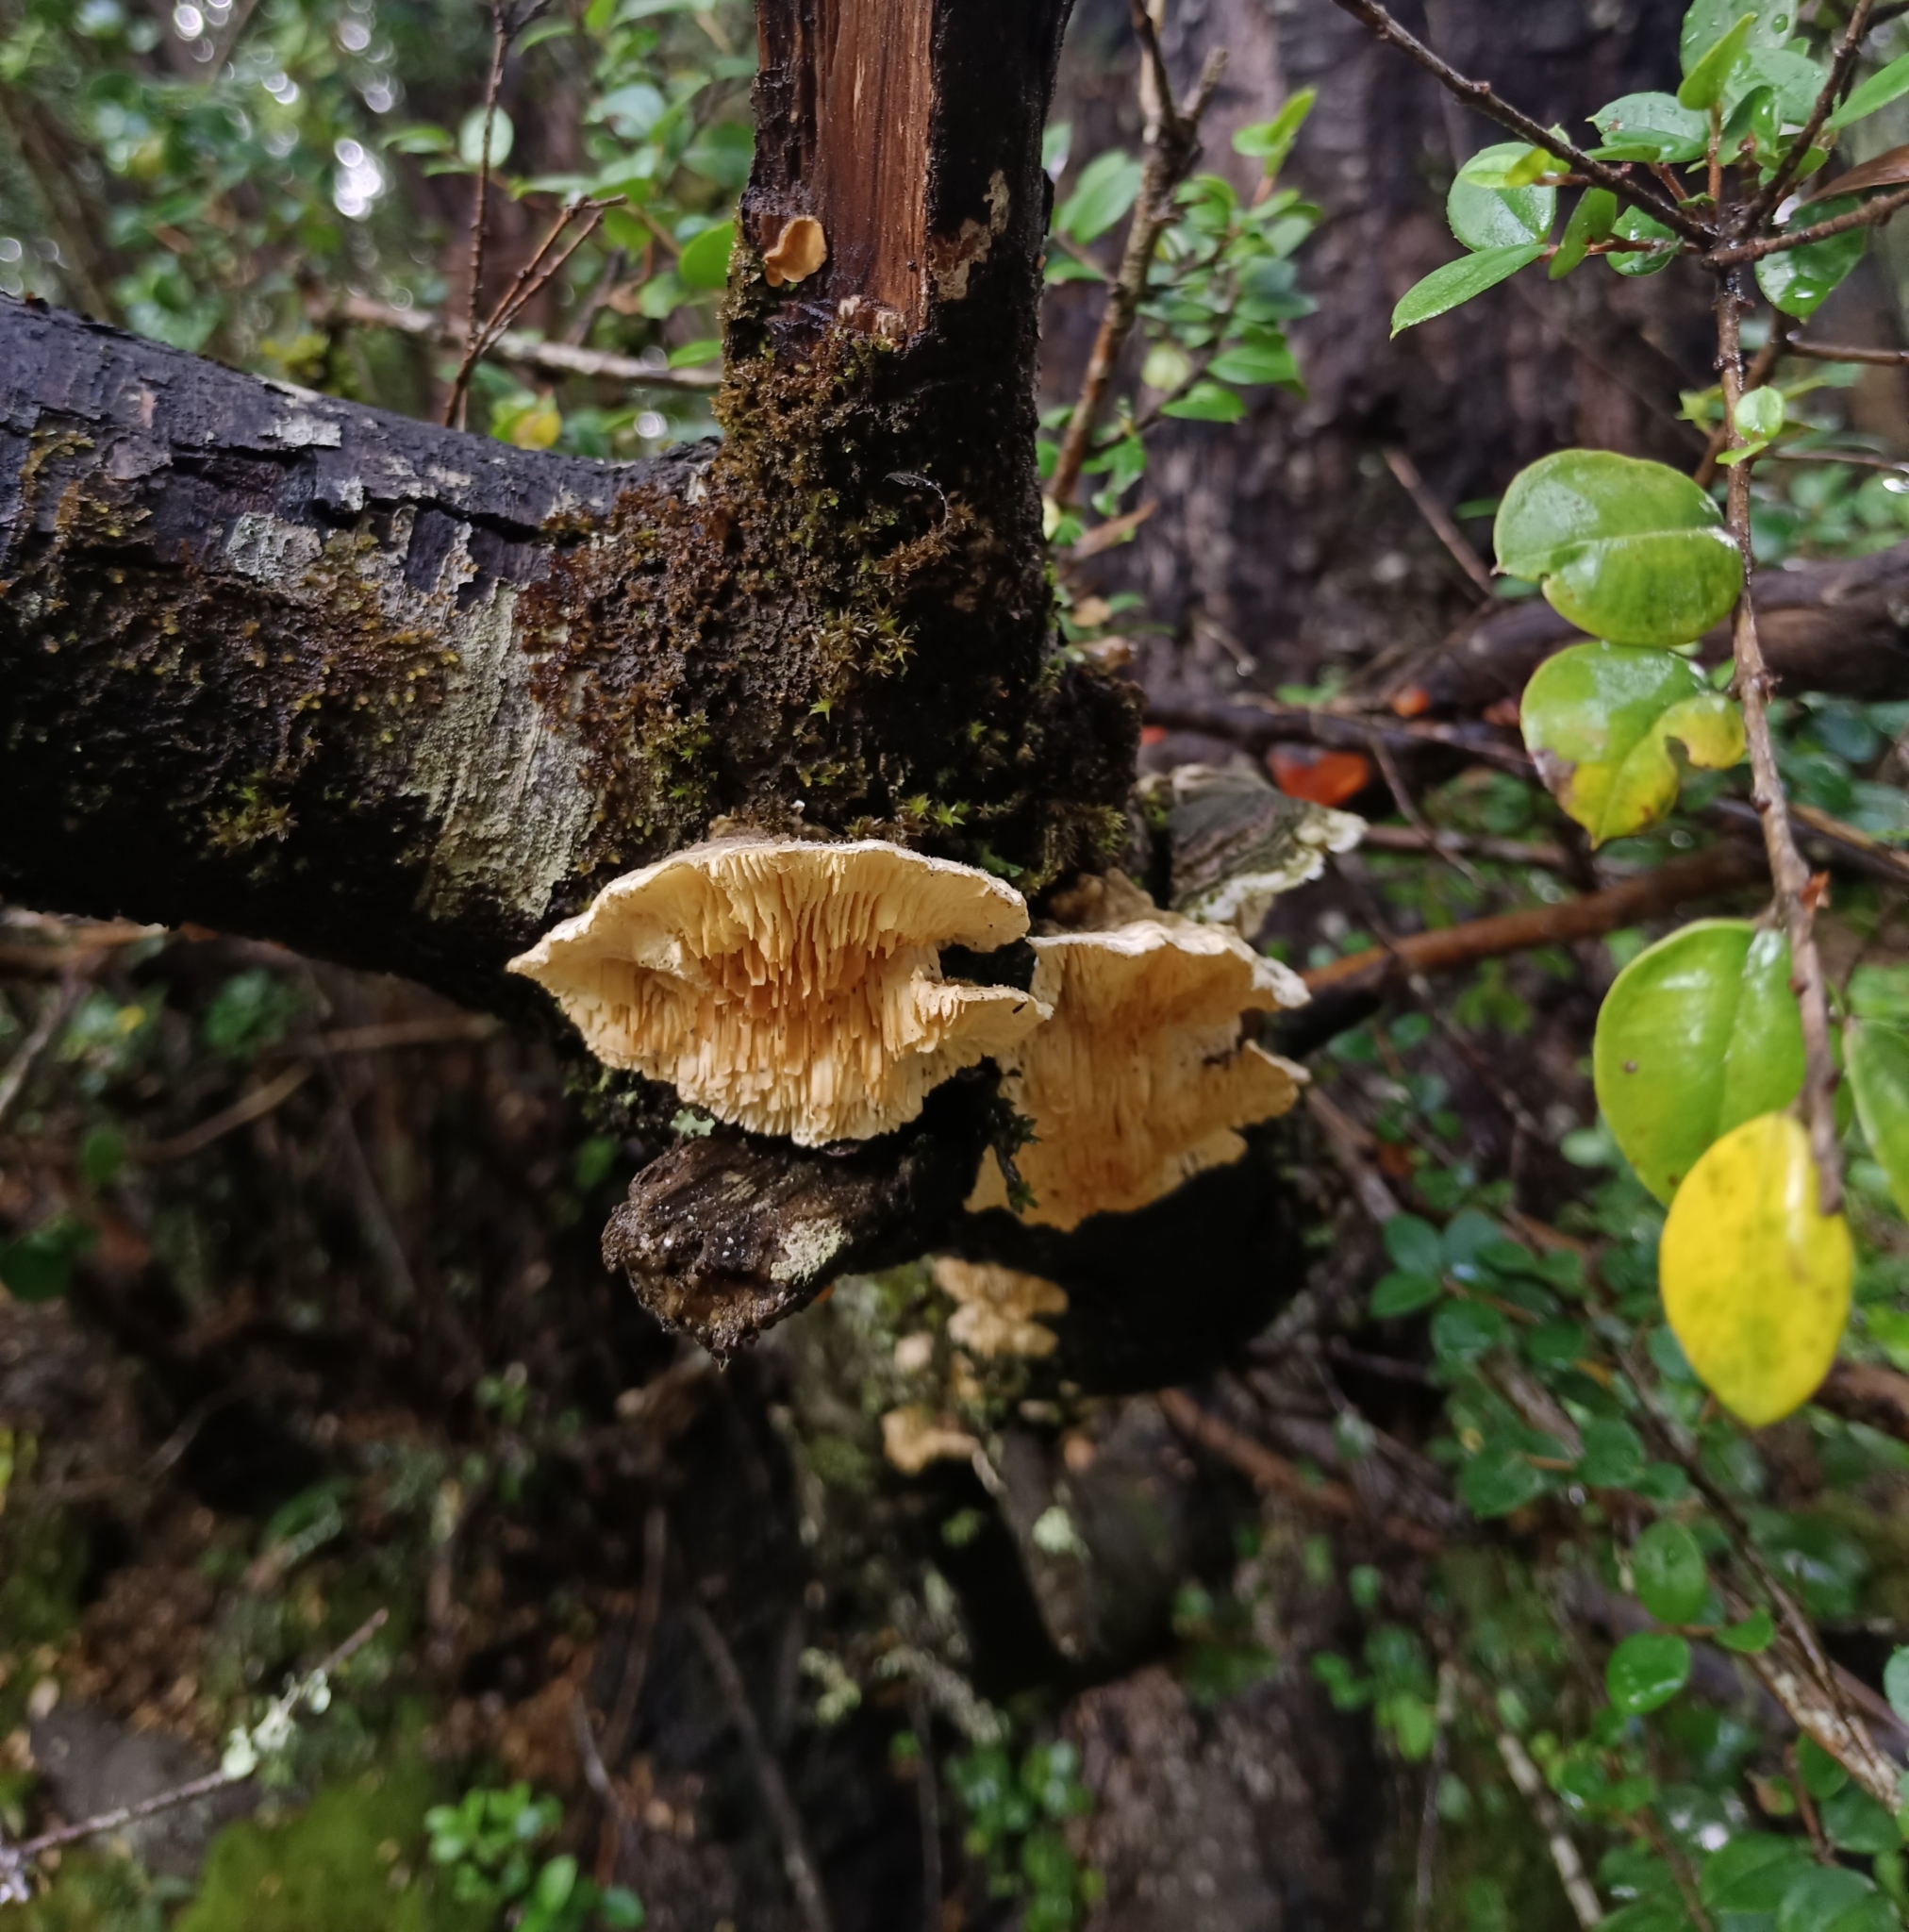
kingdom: Fungi
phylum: Basidiomycota
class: Agaricomycetes
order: Polyporales
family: Polyporaceae
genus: Lenzites
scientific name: Lenzites betulinus
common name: Birch mazegill
